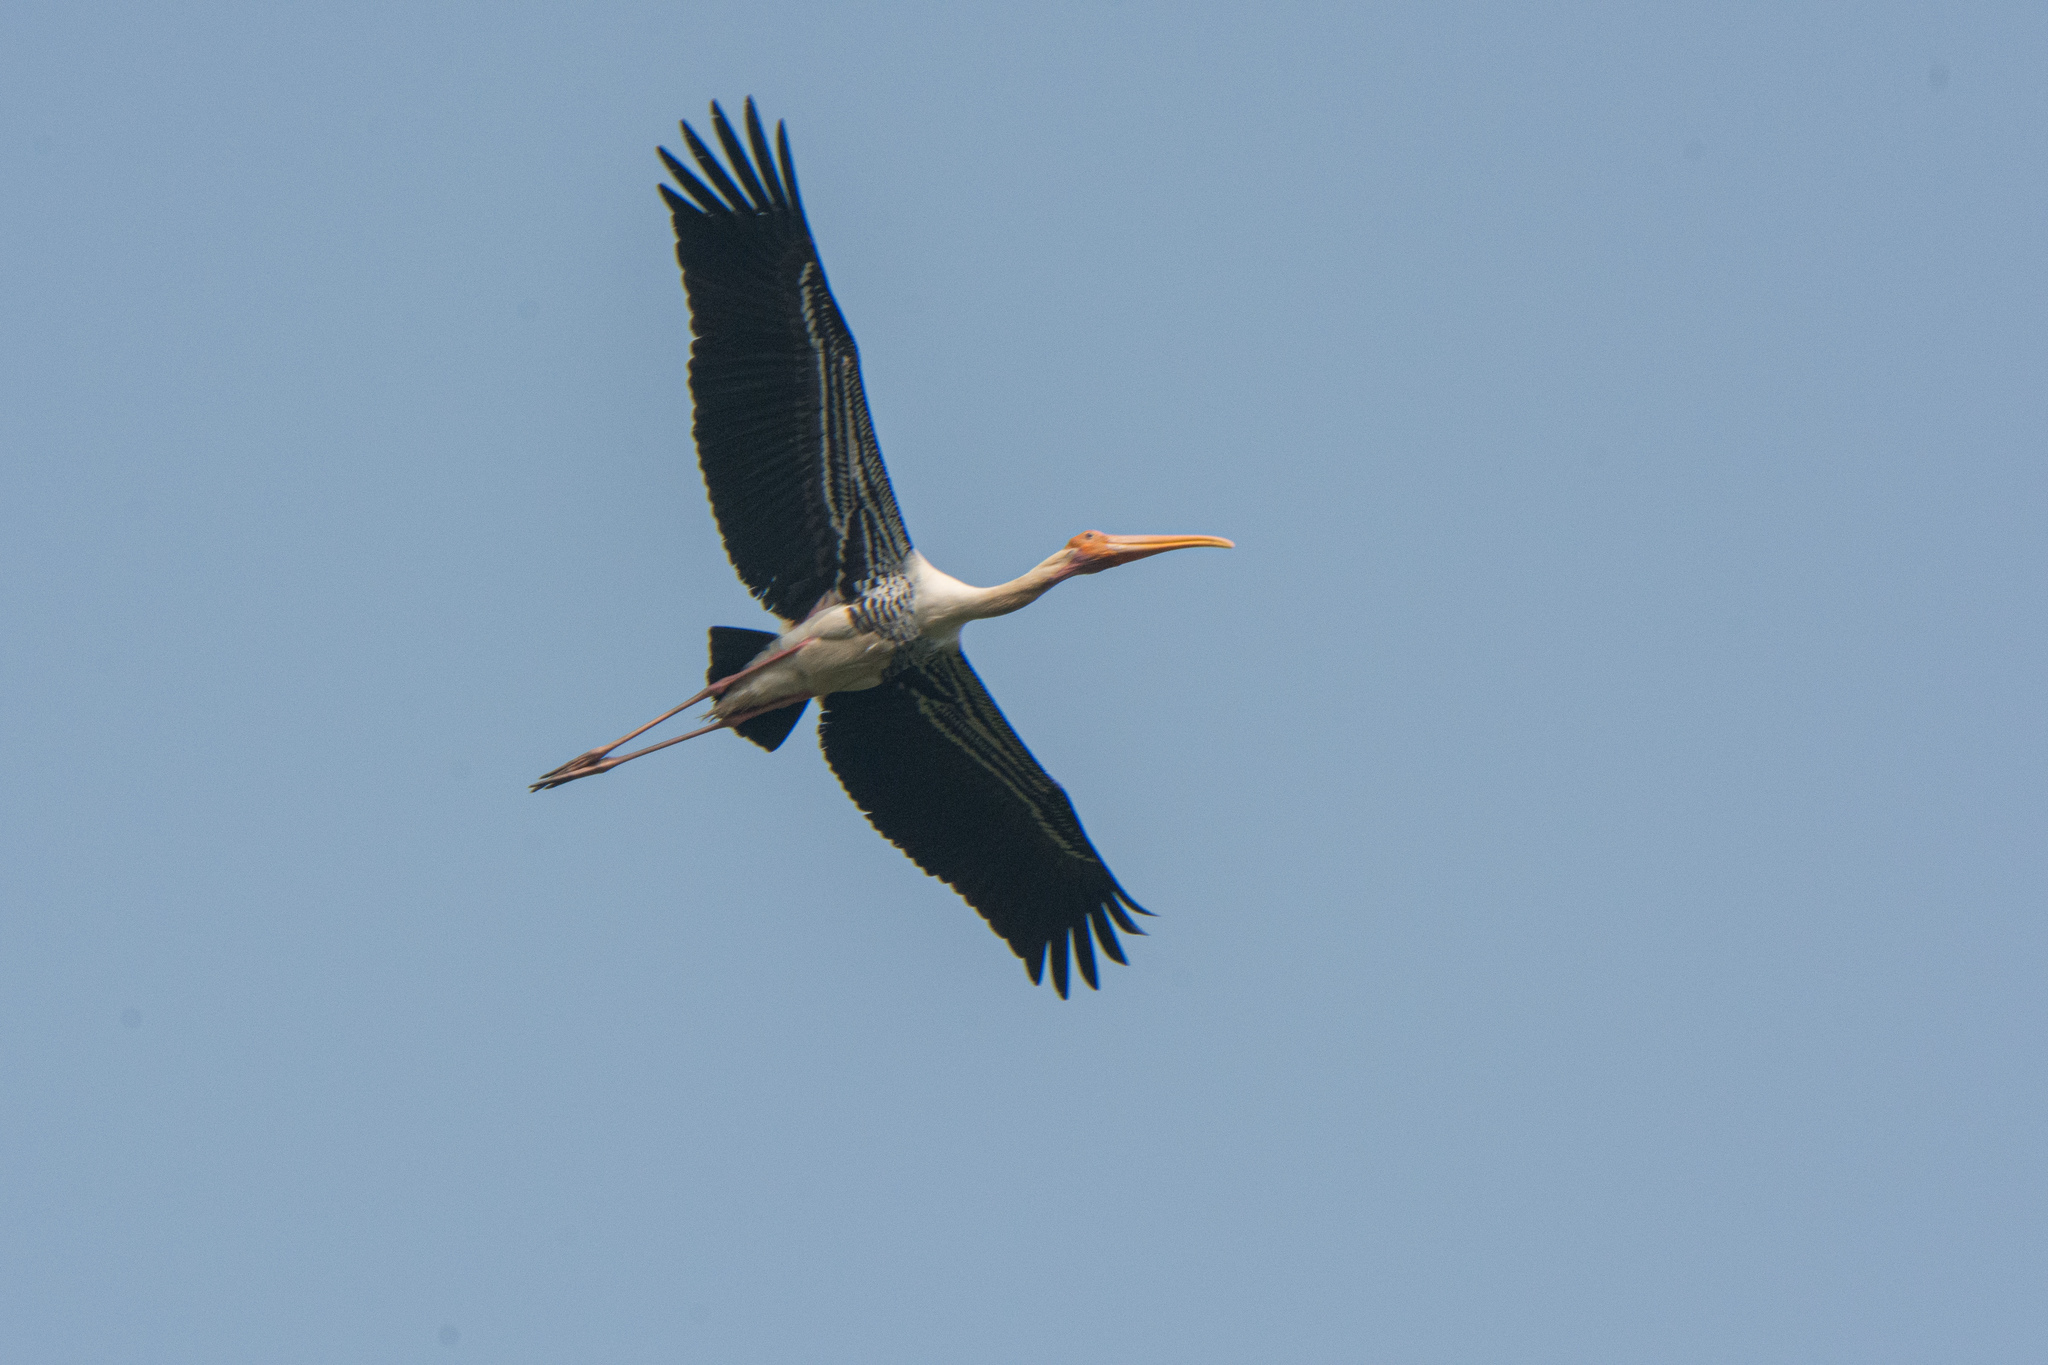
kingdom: Animalia
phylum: Chordata
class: Aves
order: Ciconiiformes
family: Ciconiidae
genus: Mycteria
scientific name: Mycteria leucocephala
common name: Painted stork
